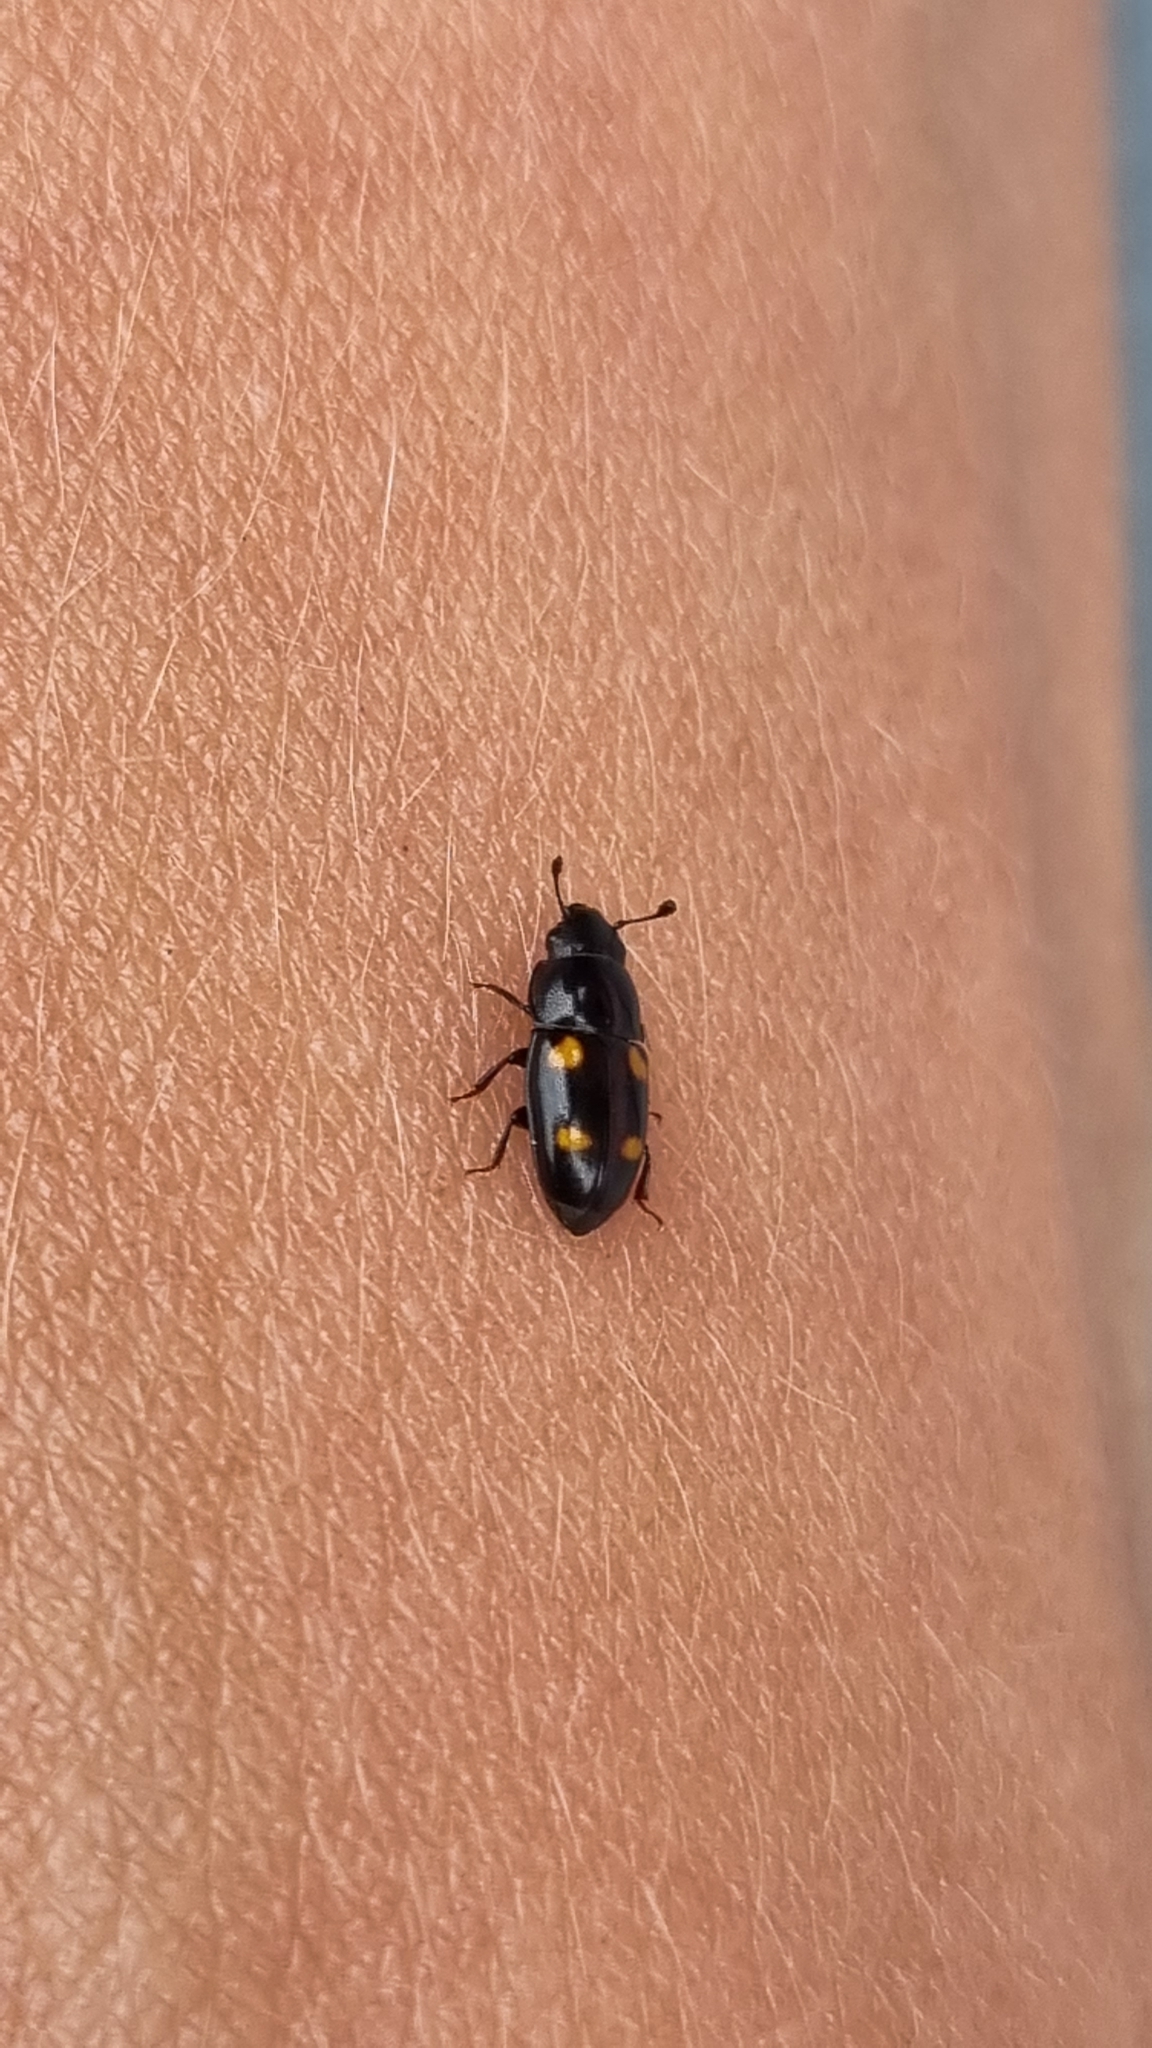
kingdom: Animalia
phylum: Arthropoda
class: Insecta
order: Coleoptera
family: Nitidulidae
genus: Glischrochilus
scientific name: Glischrochilus hortensis
